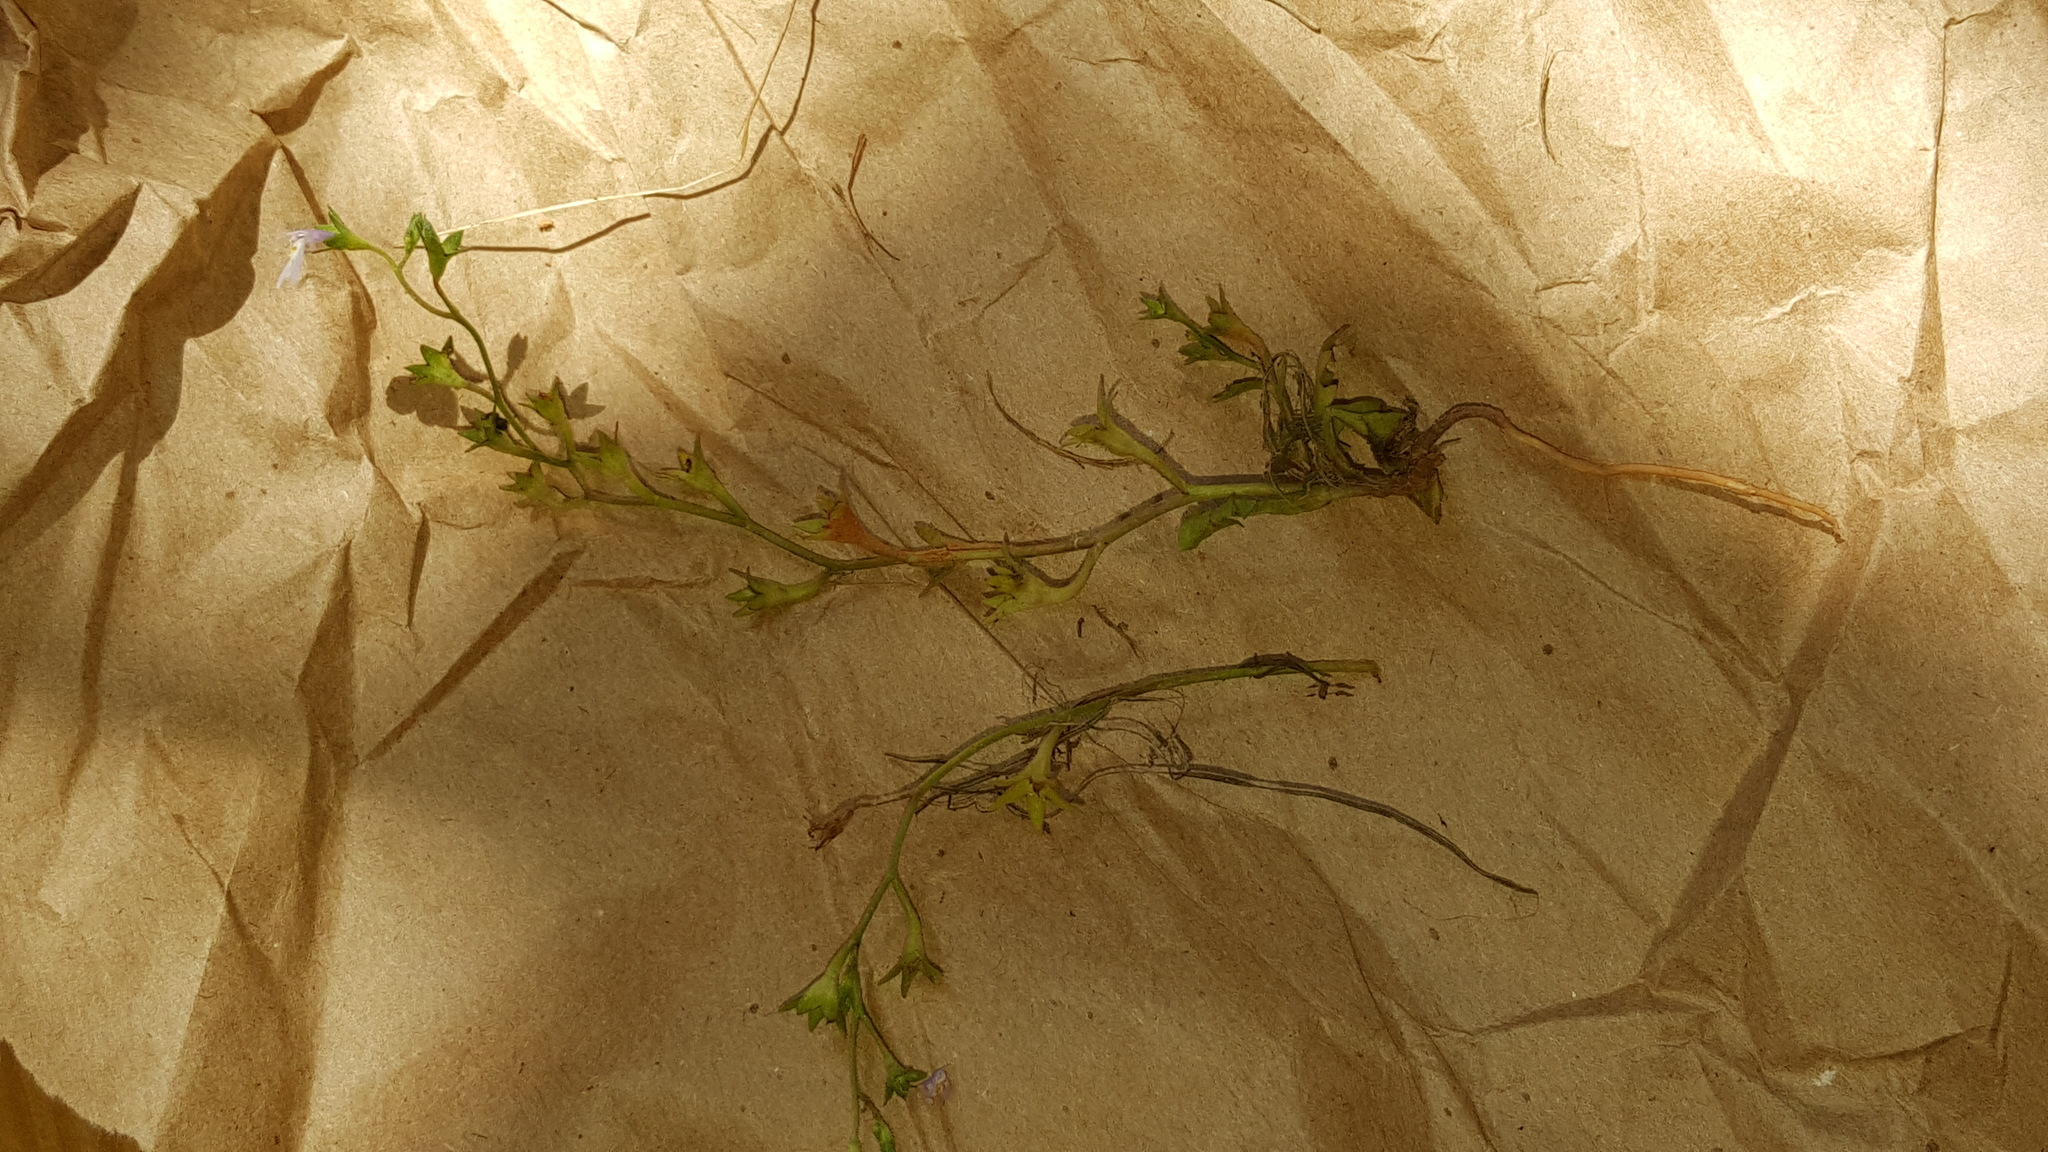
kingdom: Plantae
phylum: Tracheophyta
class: Magnoliopsida
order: Lamiales
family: Mazaceae
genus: Mazus
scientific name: Mazus pumilus
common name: Japanese mazus
